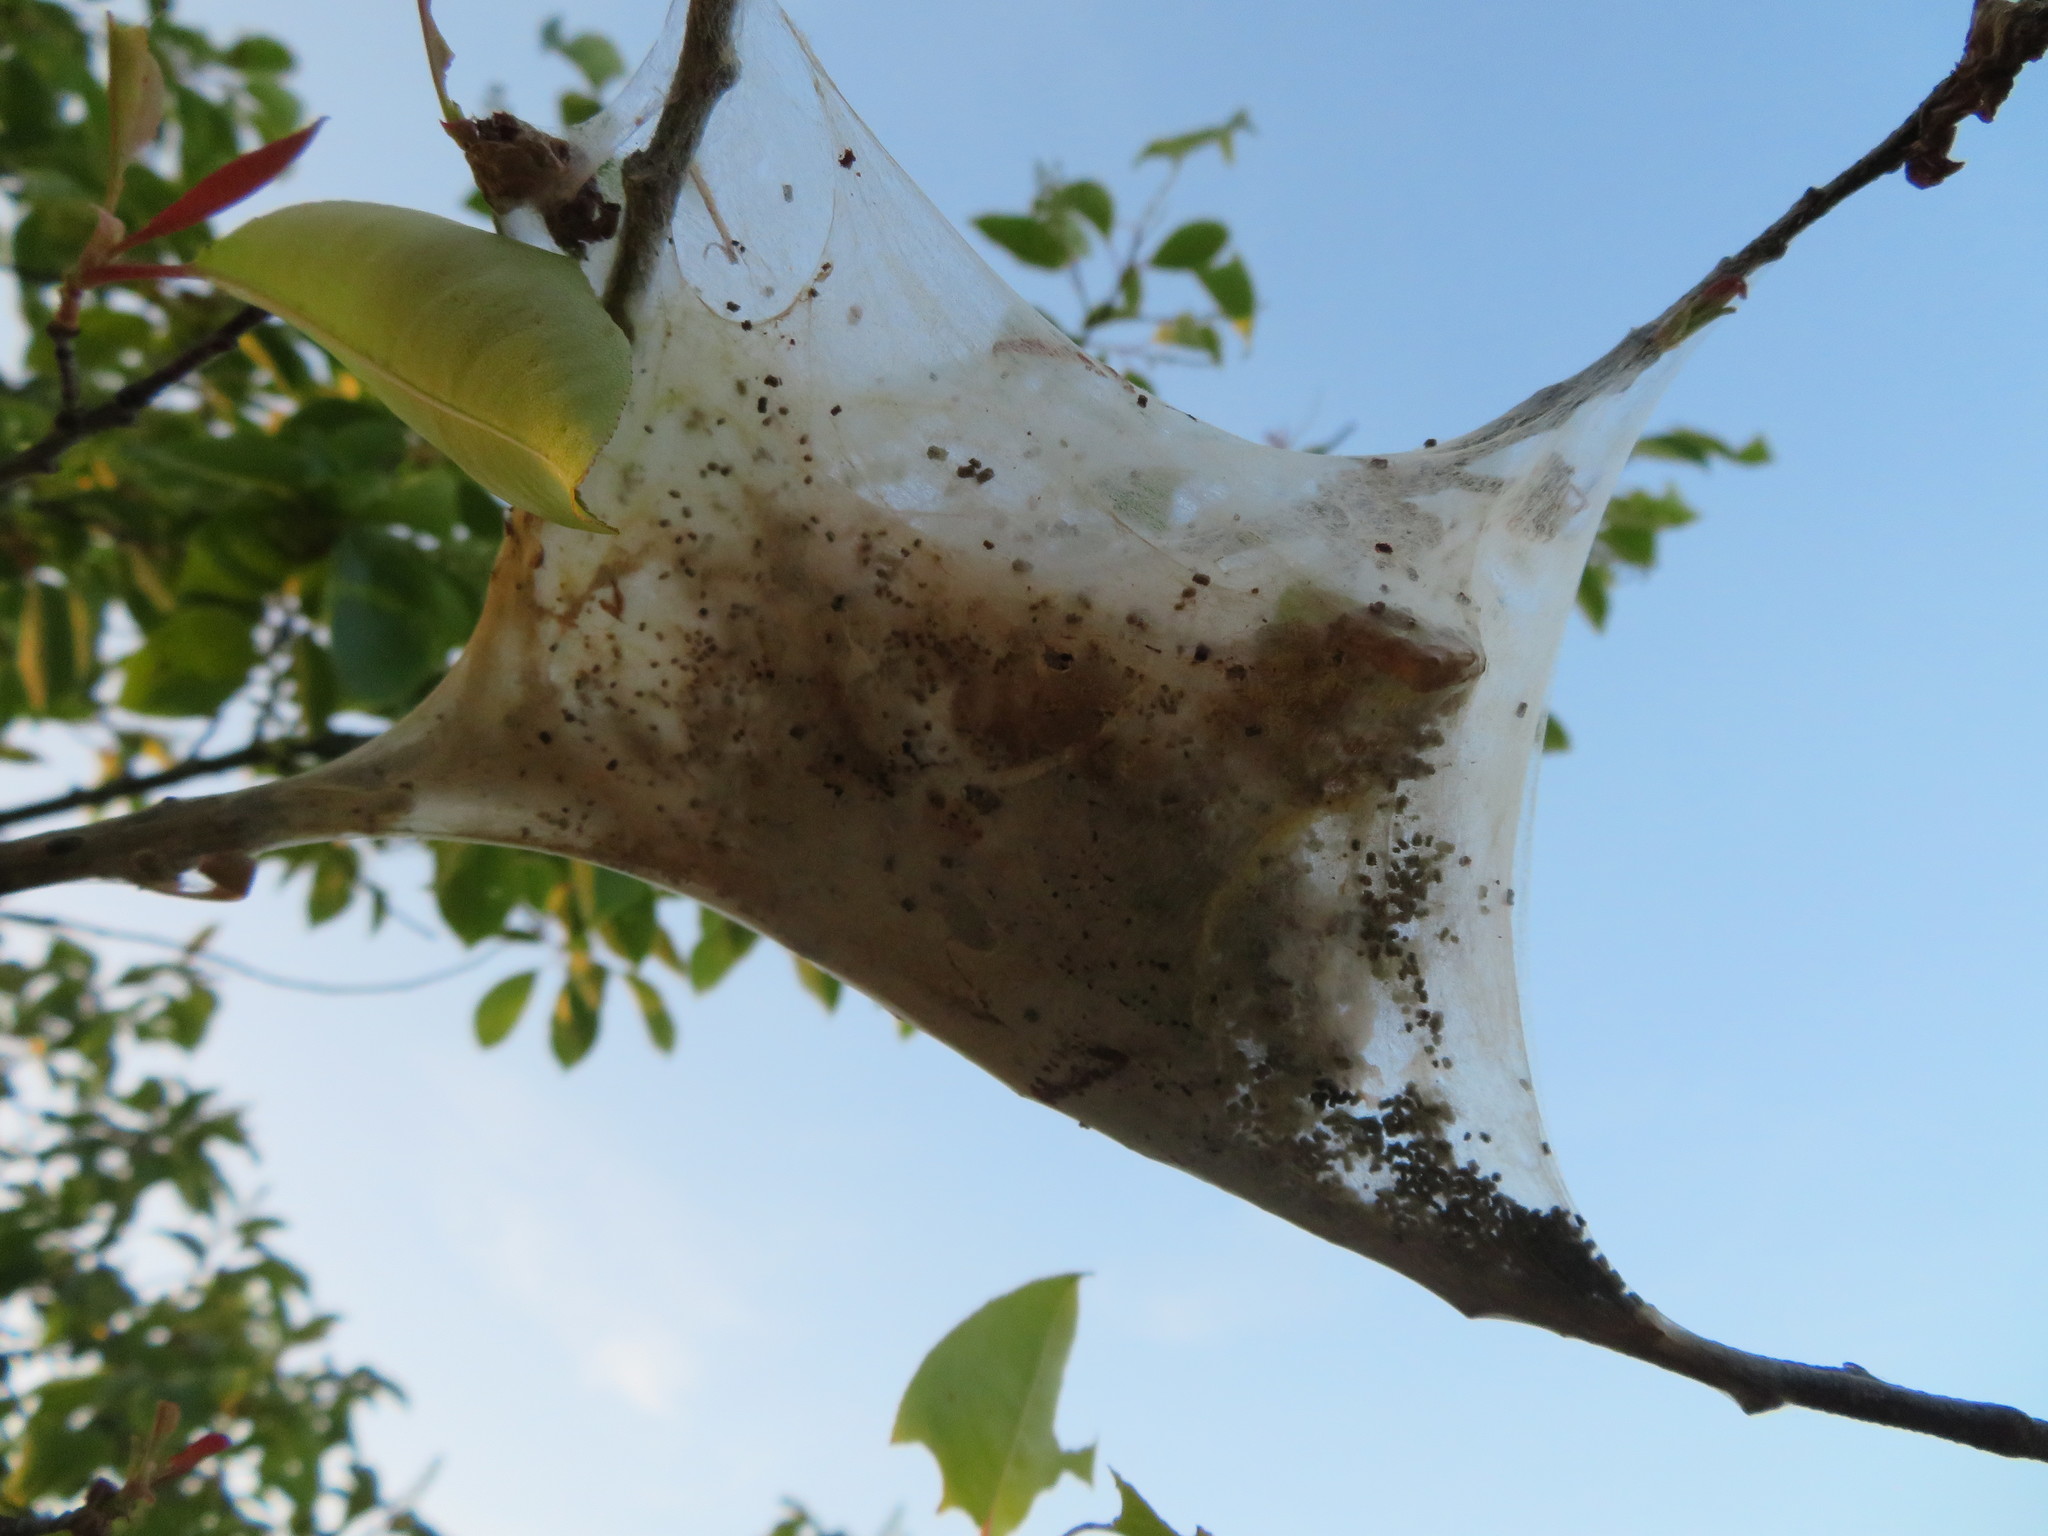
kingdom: Animalia
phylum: Arthropoda
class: Insecta
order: Lepidoptera
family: Lasiocampidae
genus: Malacosoma
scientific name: Malacosoma americana
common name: Eastern tent caterpillar moth
